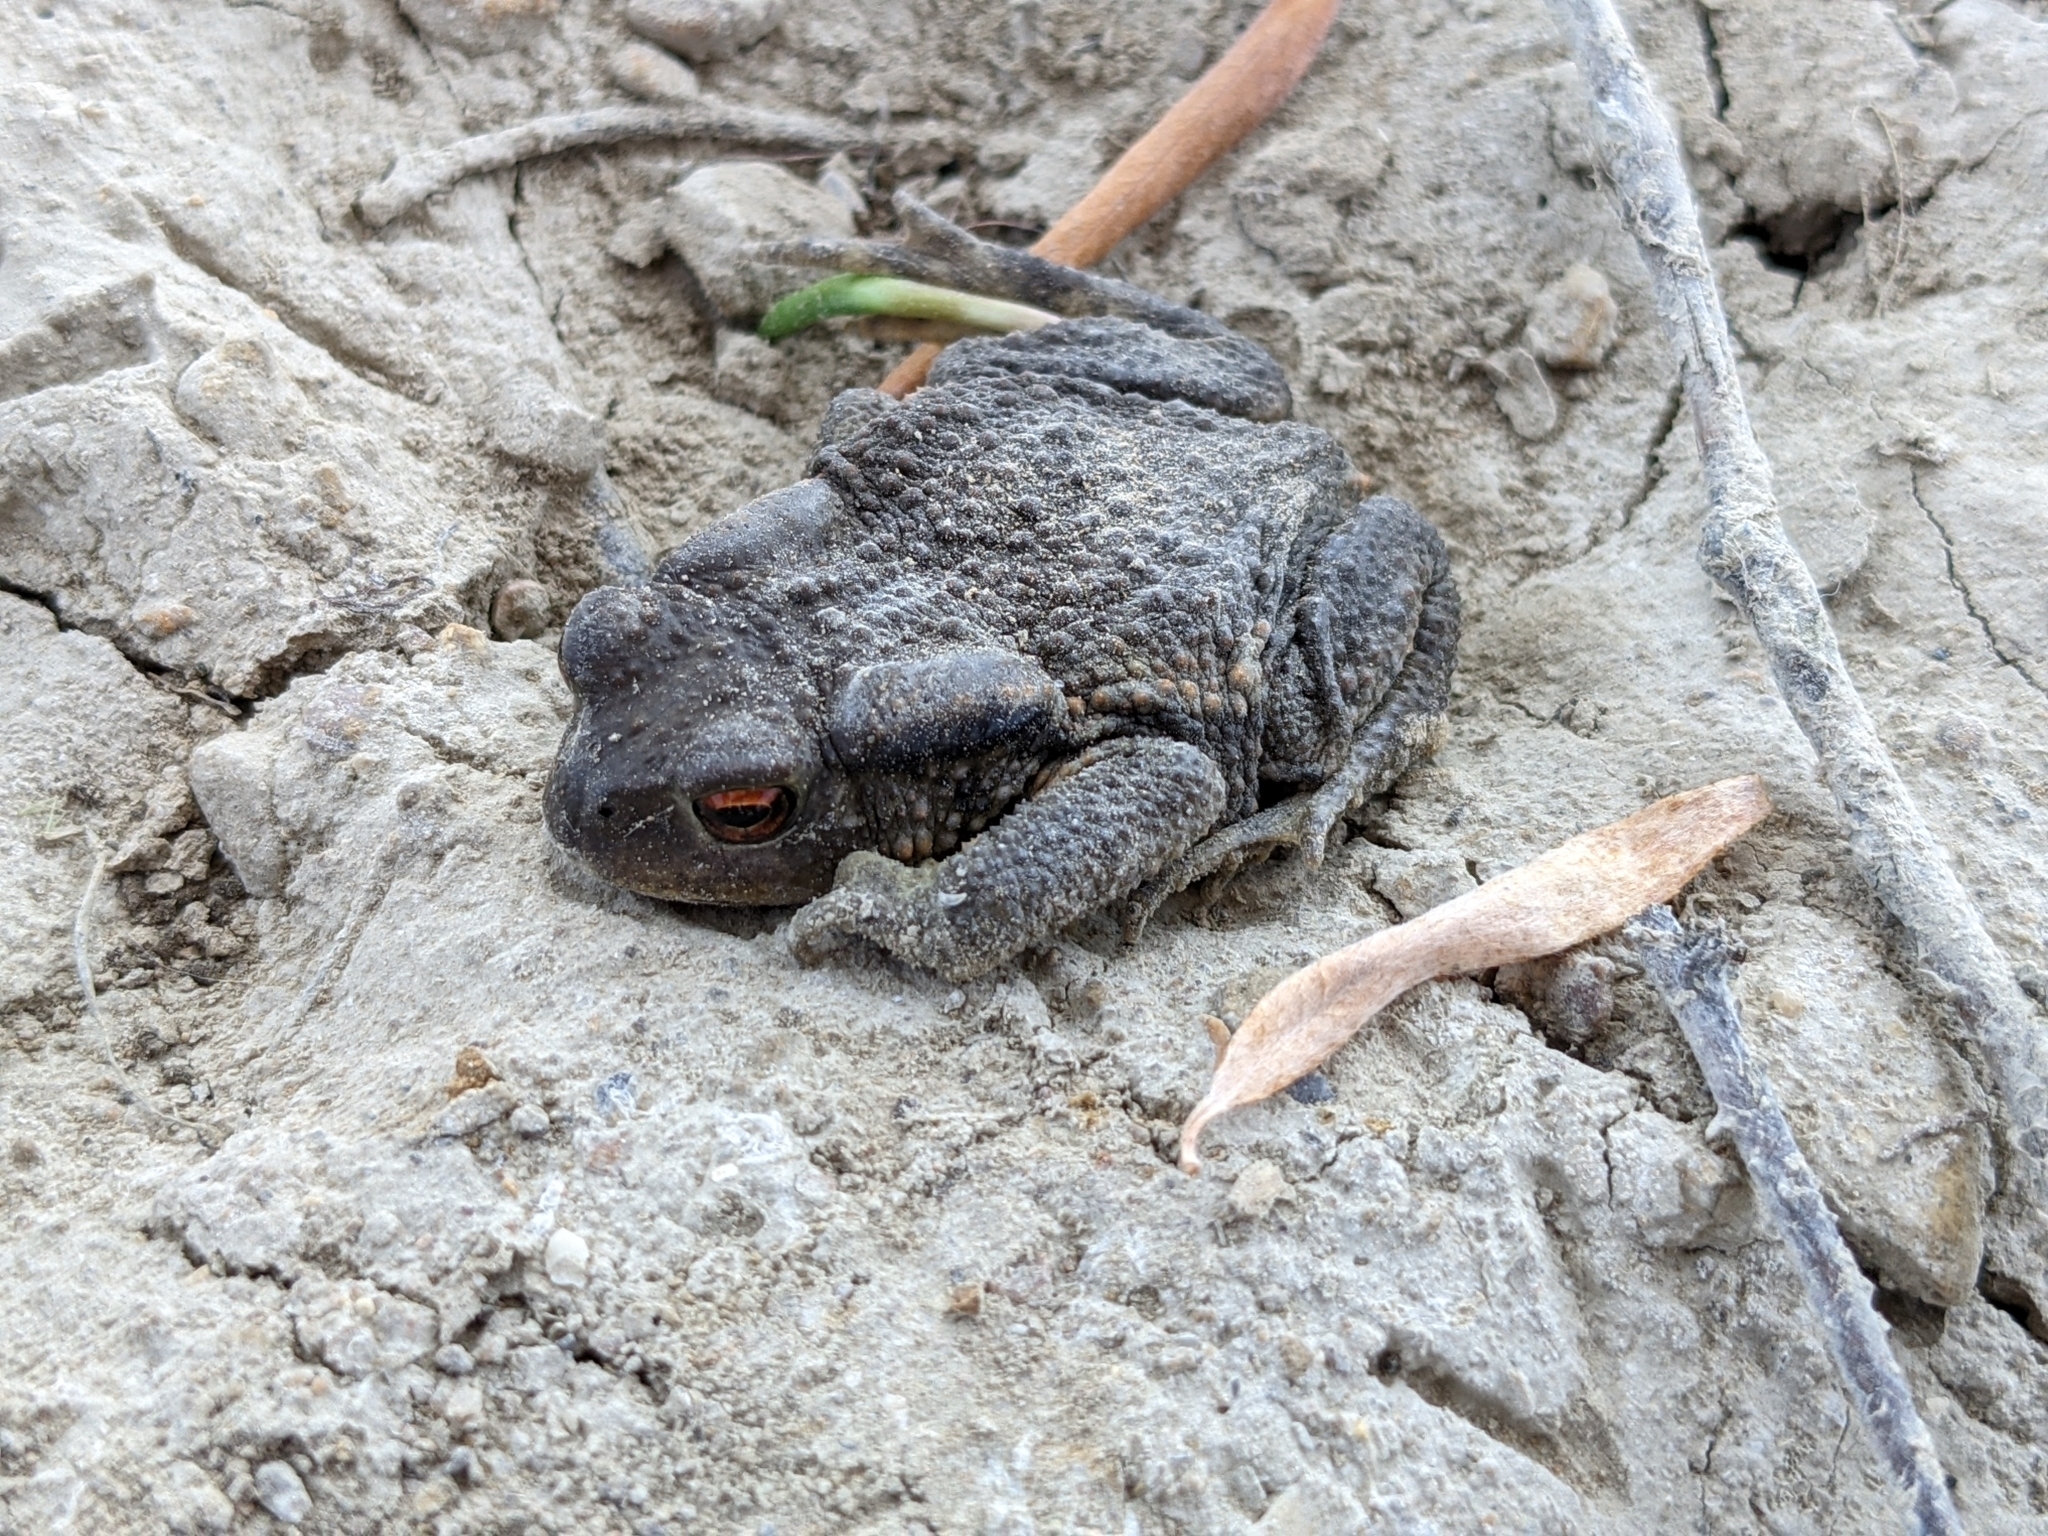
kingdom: Animalia
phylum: Chordata
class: Amphibia
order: Anura
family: Bufonidae
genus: Bufo
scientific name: Bufo spinosus
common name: Western common toad
